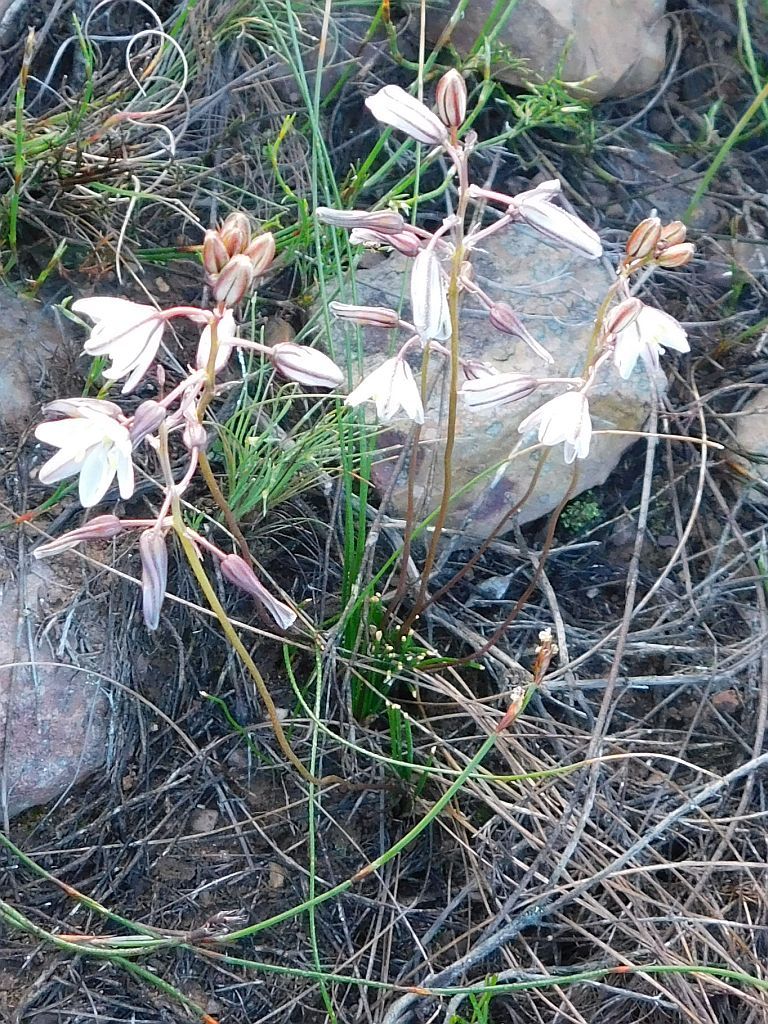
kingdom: Plantae
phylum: Tracheophyta
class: Liliopsida
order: Asparagales
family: Asparagaceae
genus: Drimia
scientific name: Drimia exuviata
